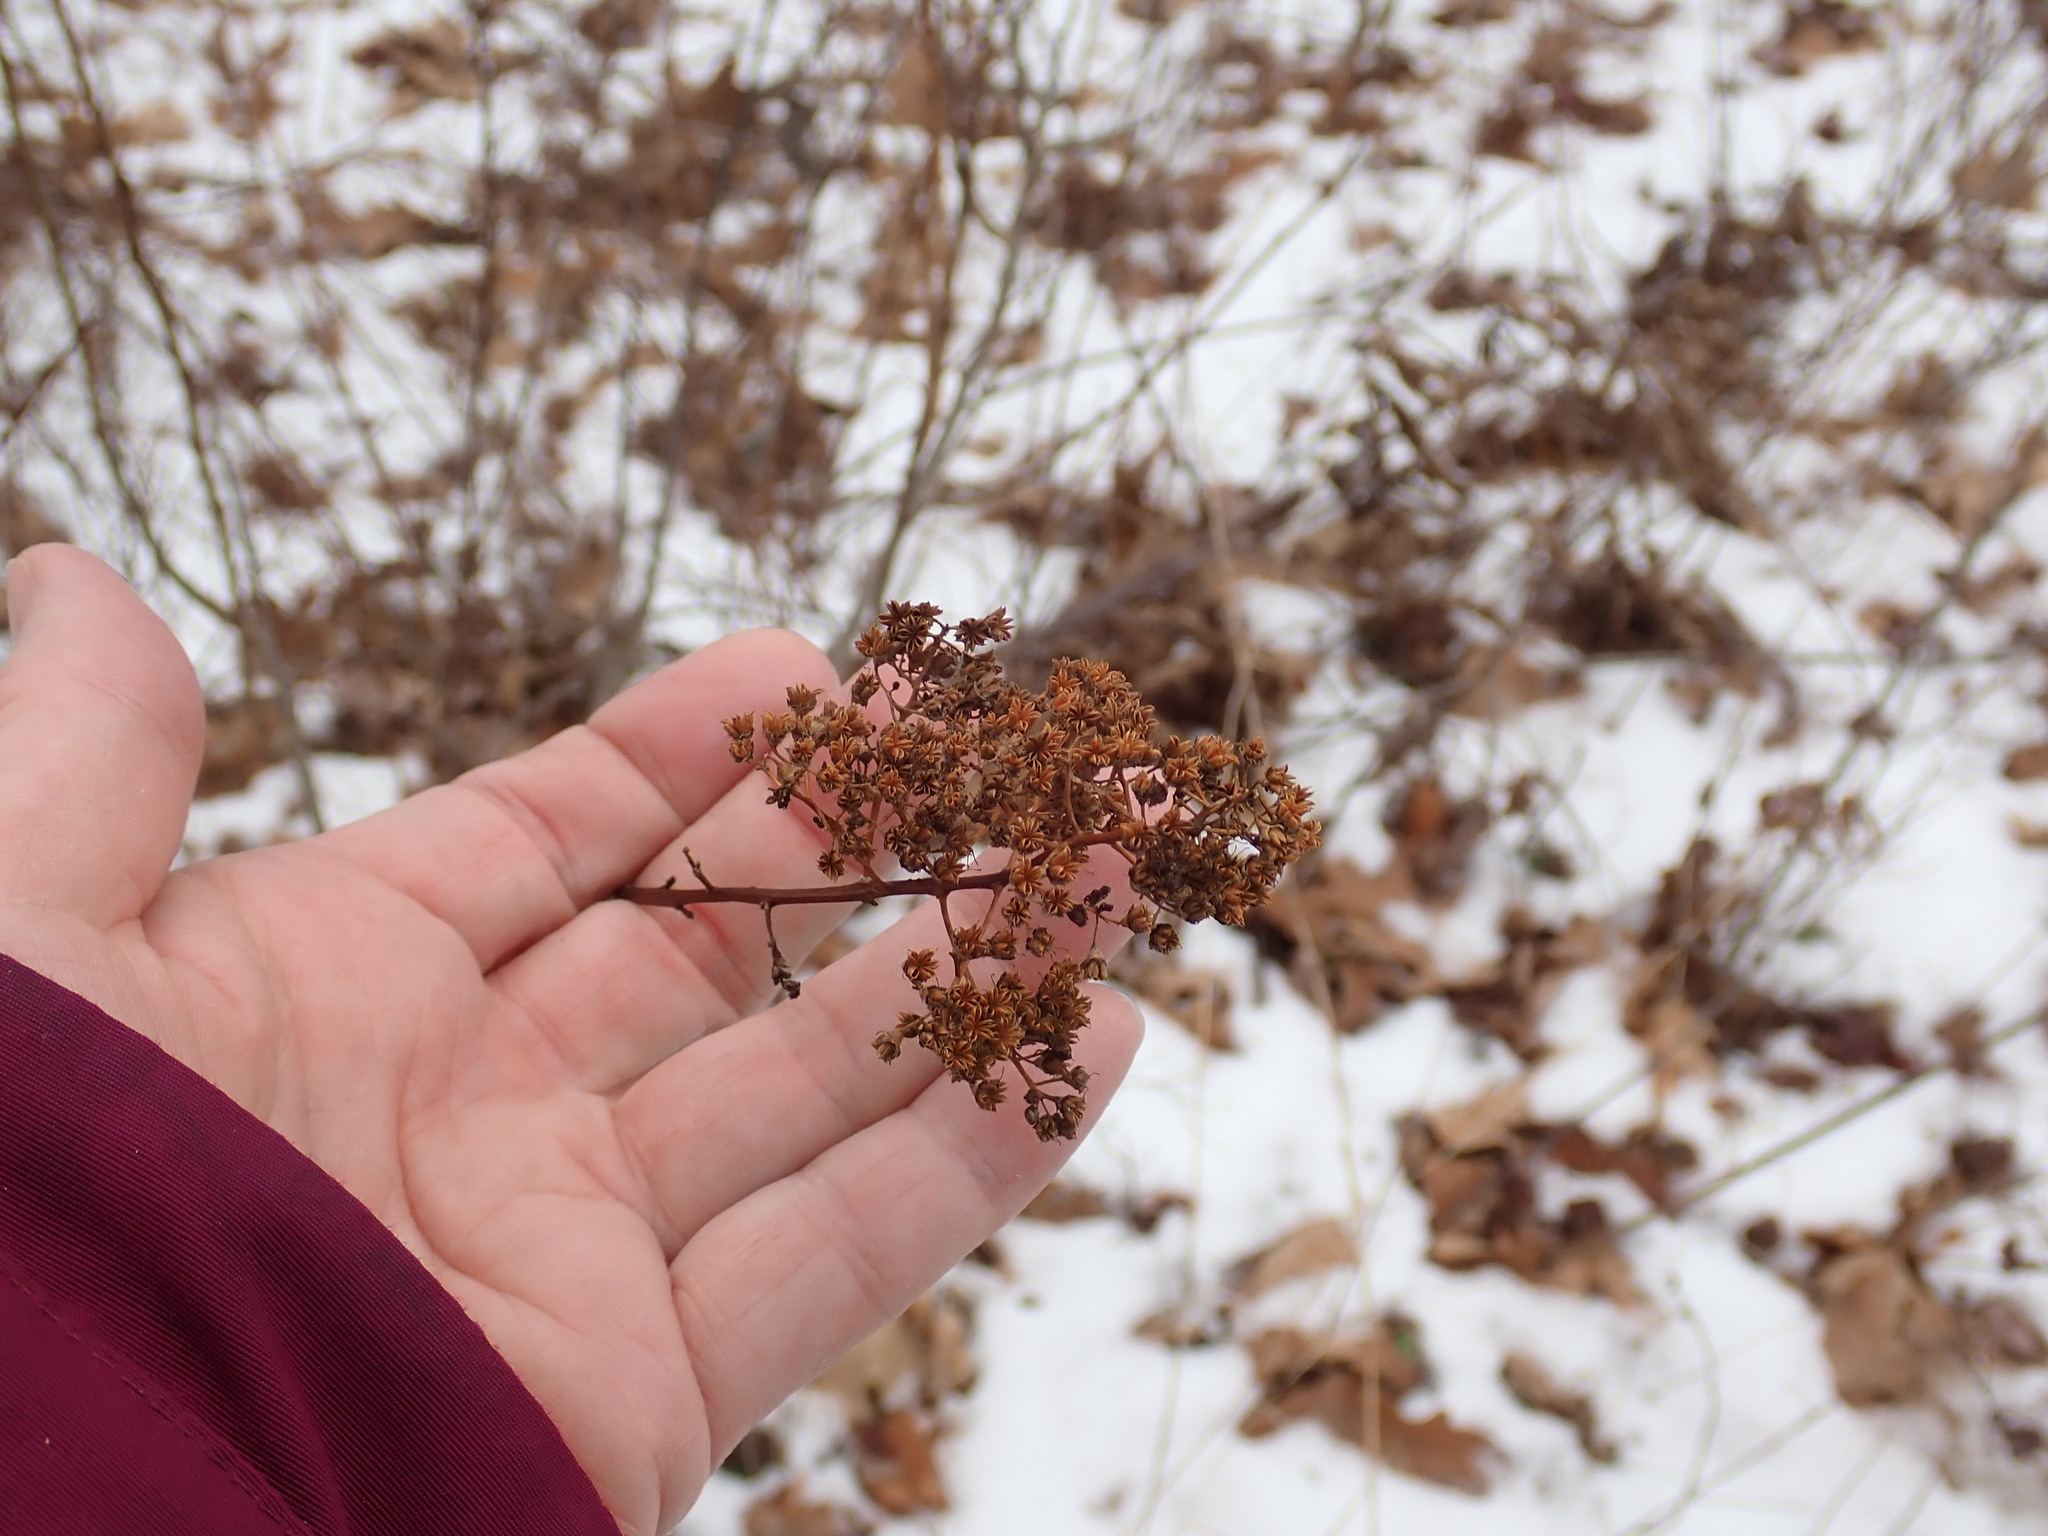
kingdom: Plantae
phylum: Tracheophyta
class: Magnoliopsida
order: Rosales
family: Rosaceae
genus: Spiraea
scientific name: Spiraea alba
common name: Pale bridewort
